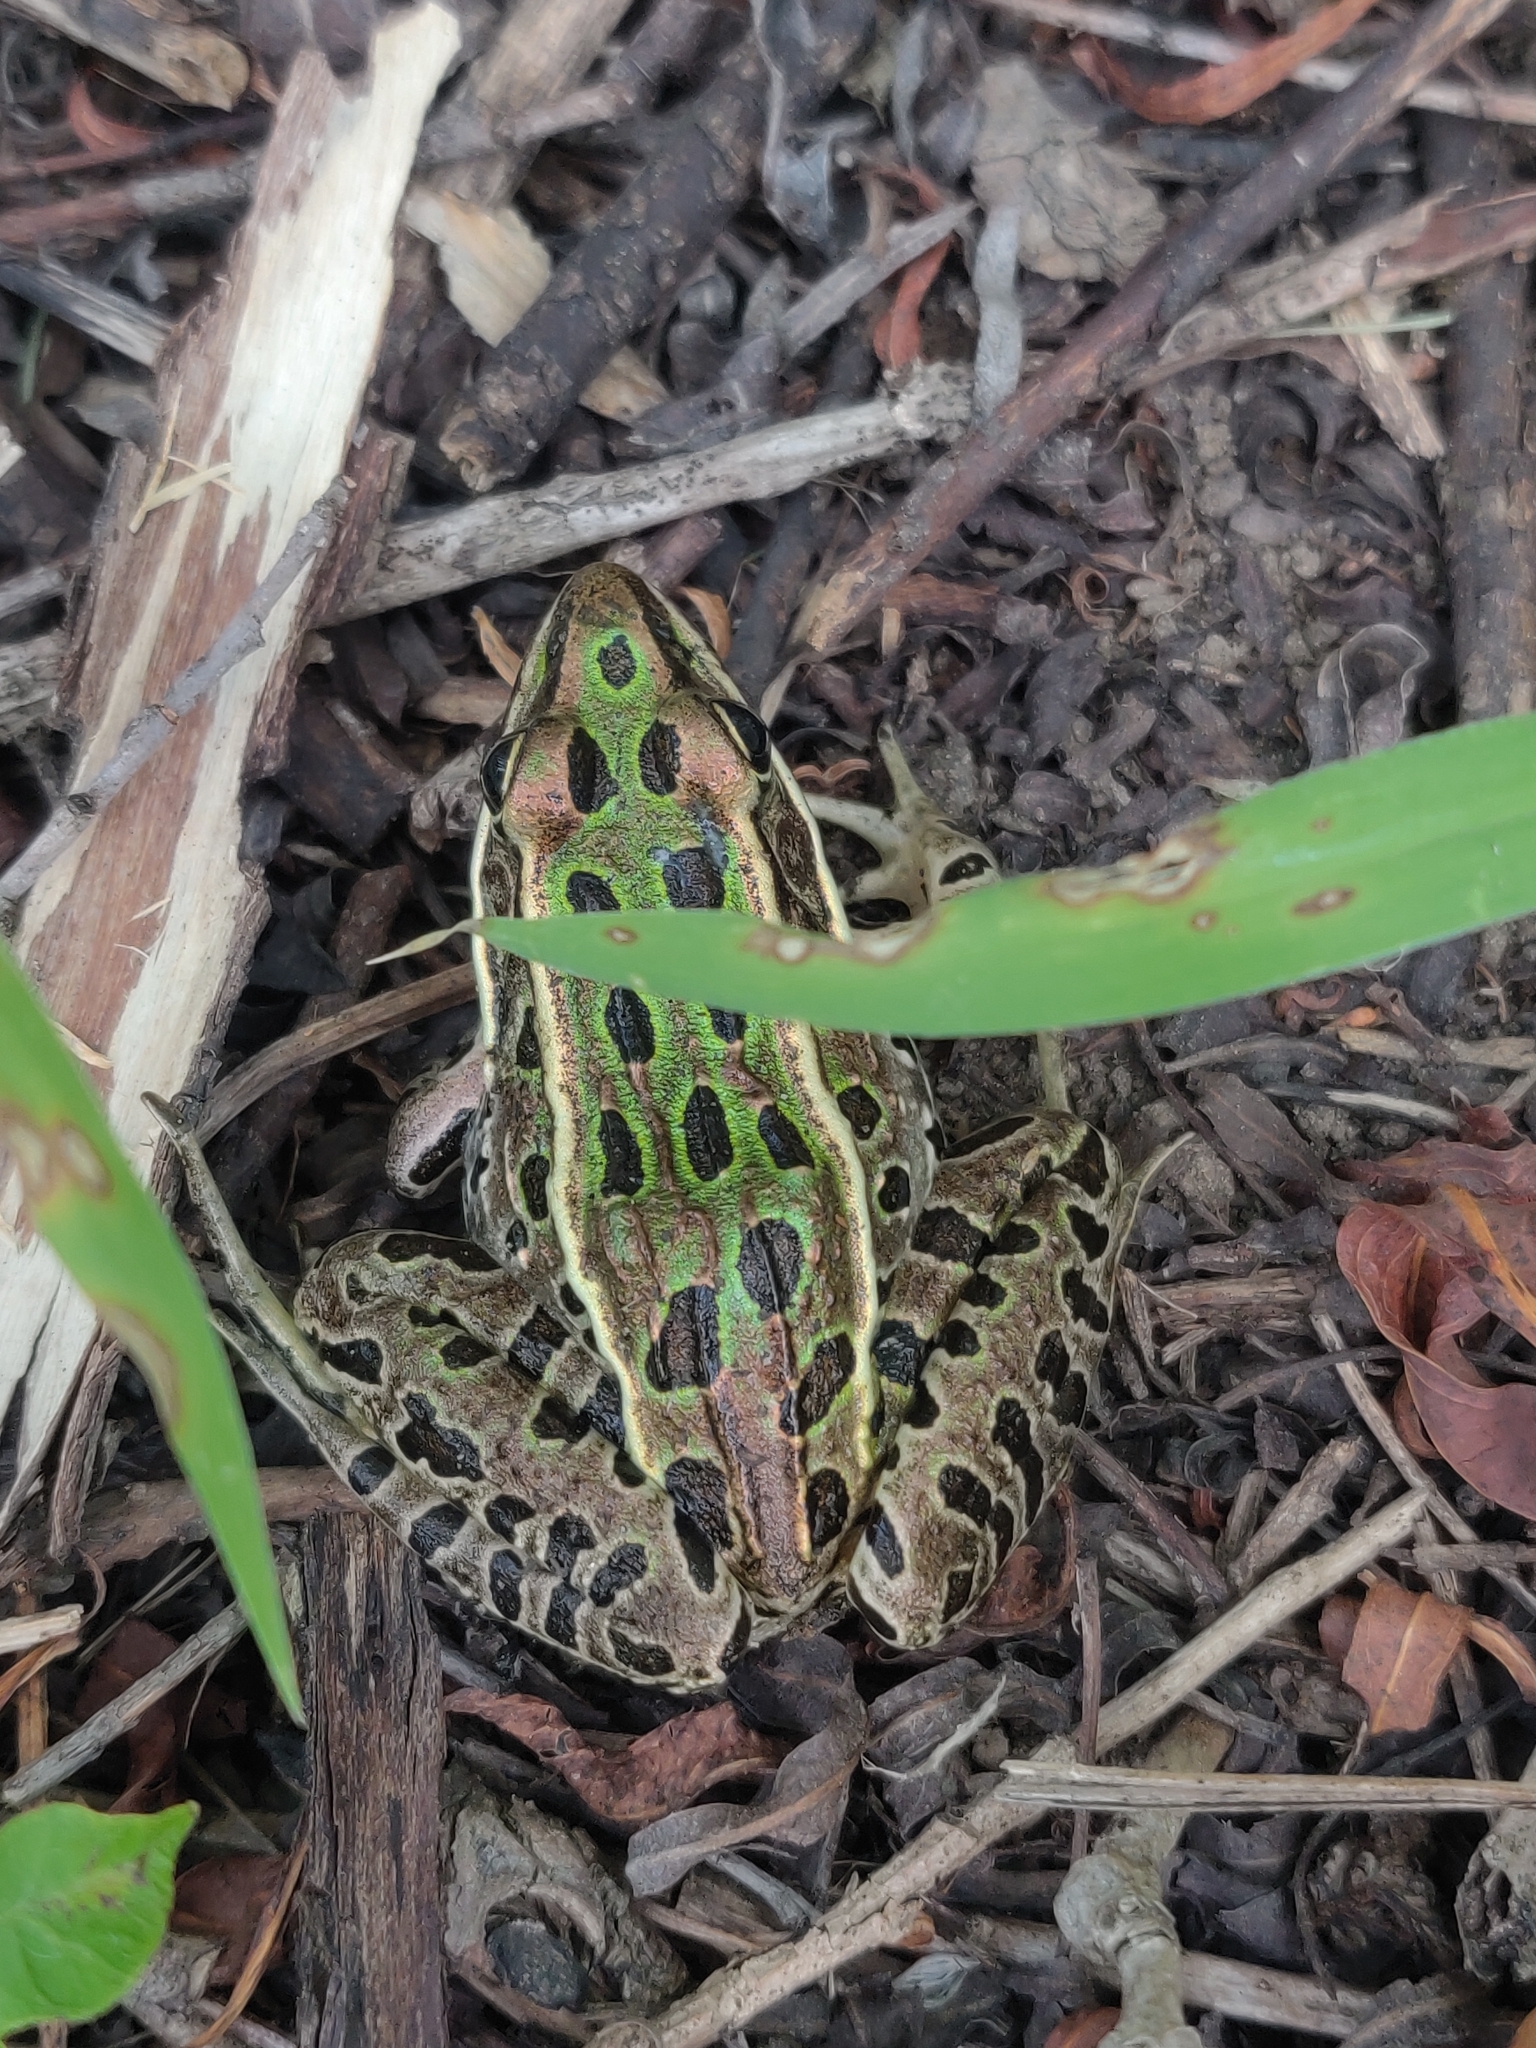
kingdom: Animalia
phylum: Chordata
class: Amphibia
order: Anura
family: Ranidae
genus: Lithobates
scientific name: Lithobates pipiens
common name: Northern leopard frog
